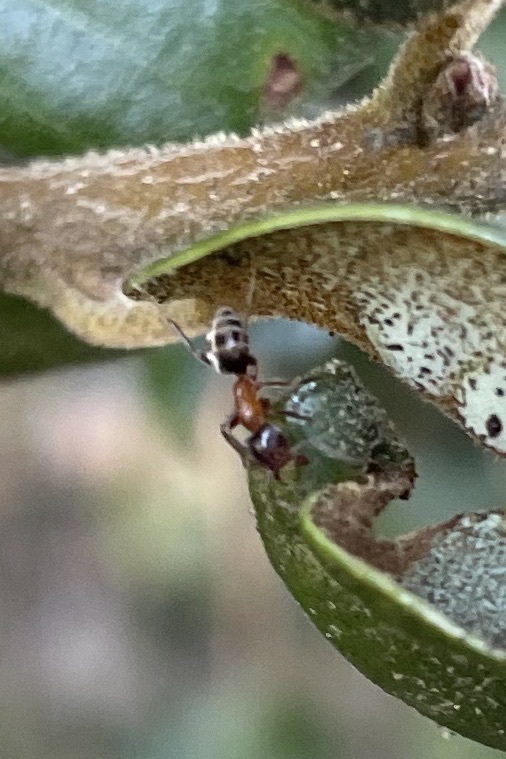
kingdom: Animalia
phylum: Arthropoda
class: Insecta
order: Hymenoptera
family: Formicidae
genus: Liometopum
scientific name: Liometopum occidentale
